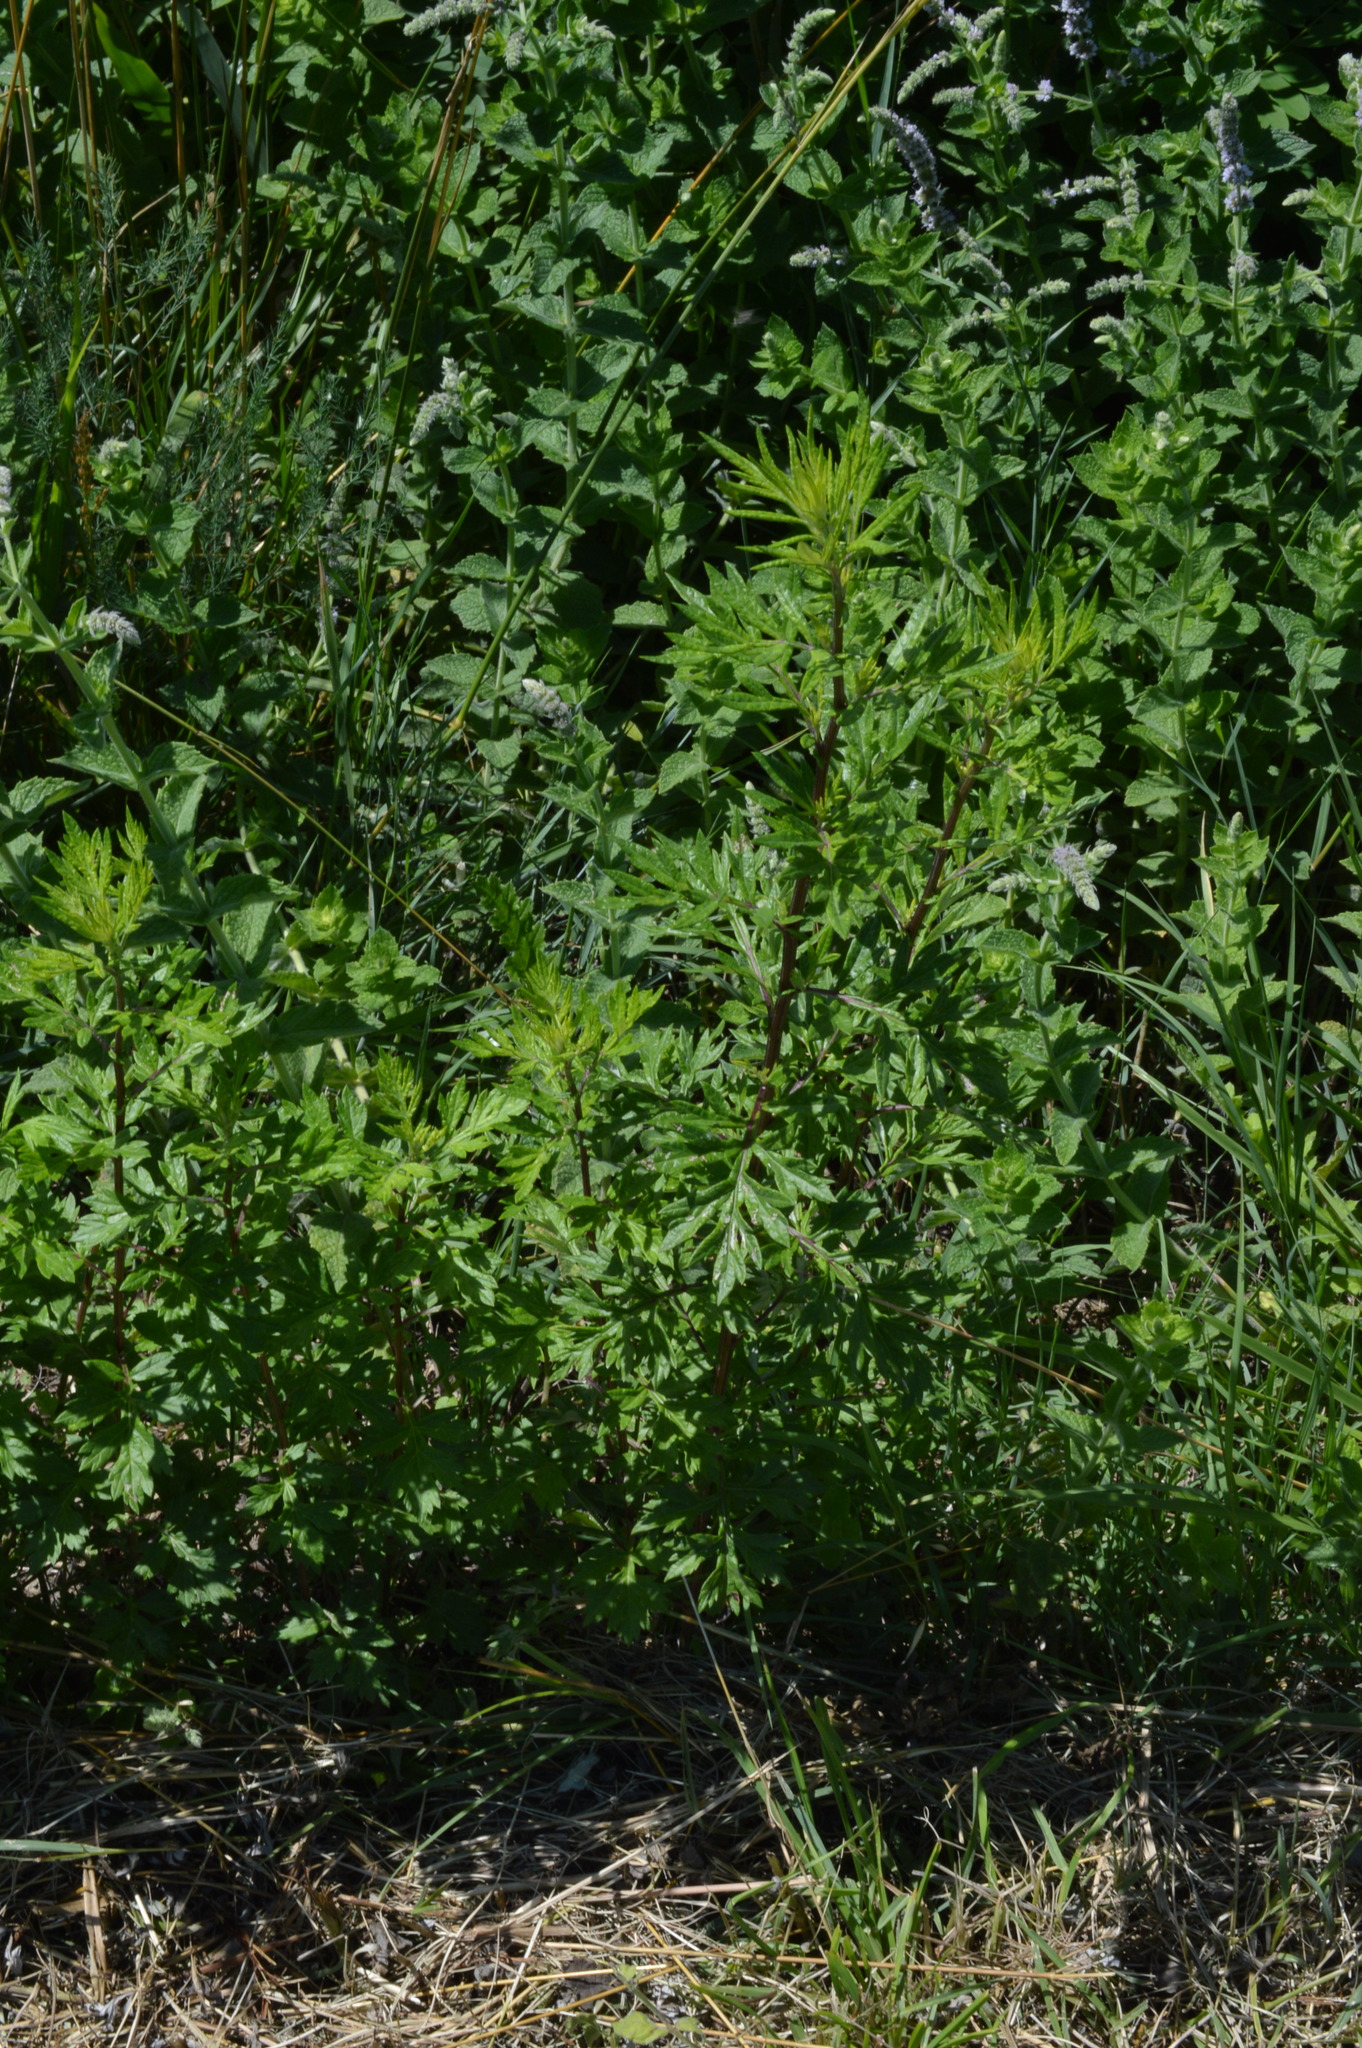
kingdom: Plantae
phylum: Tracheophyta
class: Magnoliopsida
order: Asterales
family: Asteraceae
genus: Artemisia
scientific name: Artemisia vulgaris
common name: Mugwort
